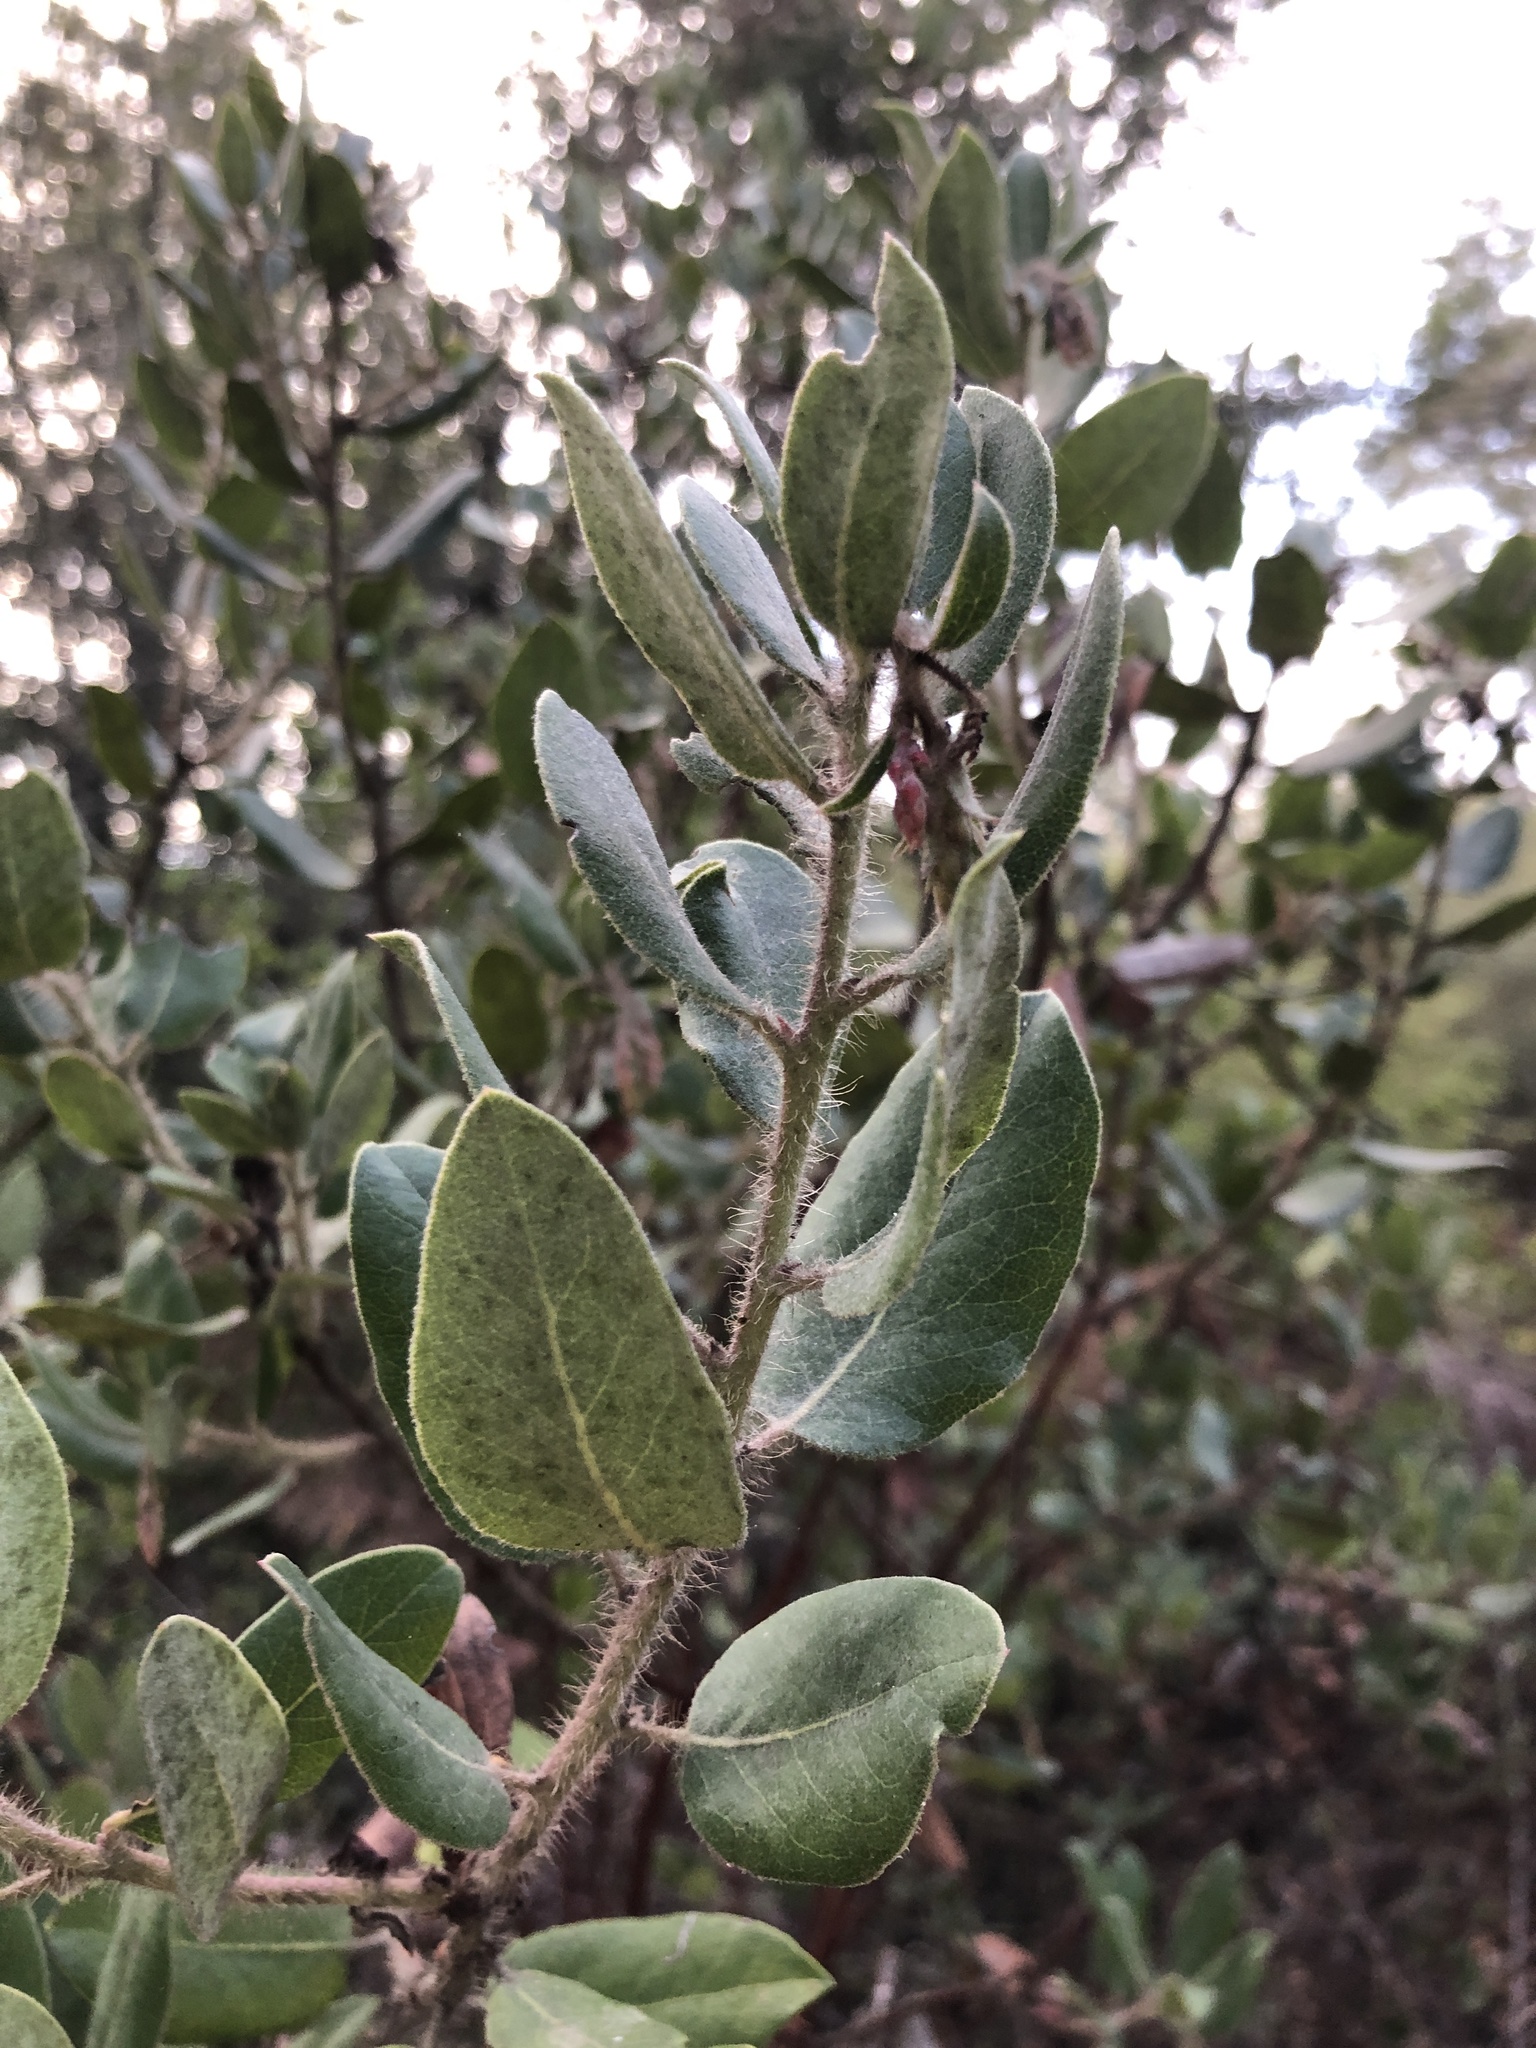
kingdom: Plantae
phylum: Tracheophyta
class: Magnoliopsida
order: Ericales
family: Ericaceae
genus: Arctostaphylos
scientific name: Arctostaphylos crustacea
